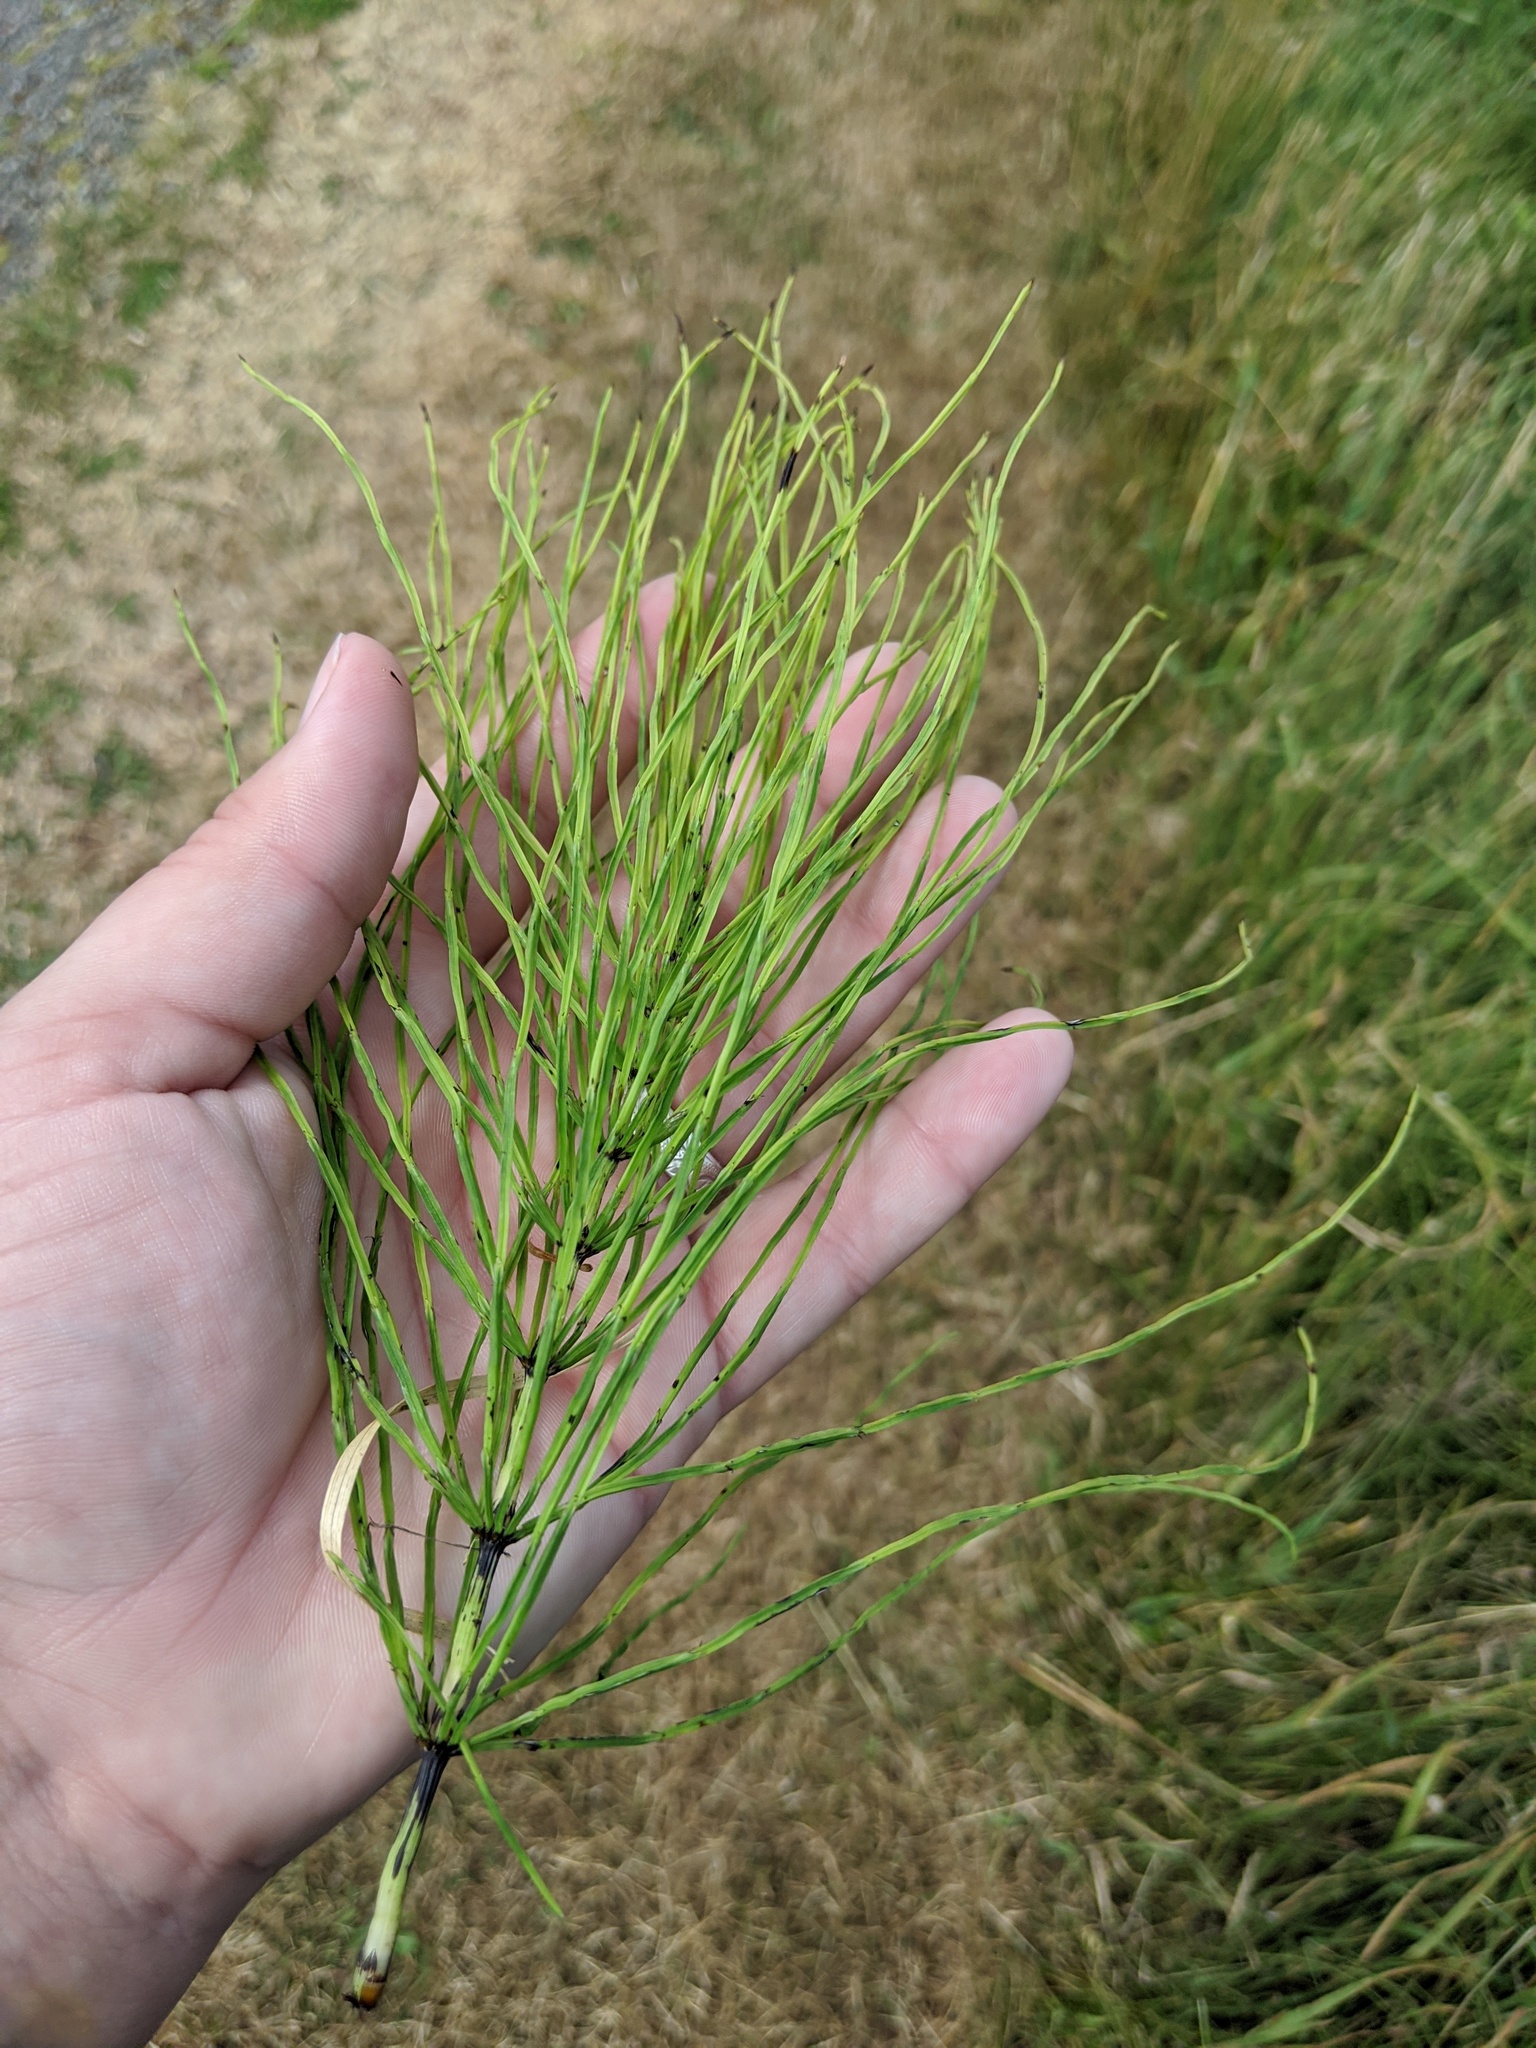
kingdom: Plantae
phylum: Tracheophyta
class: Polypodiopsida
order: Equisetales
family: Equisetaceae
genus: Equisetum
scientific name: Equisetum arvense
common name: Field horsetail
